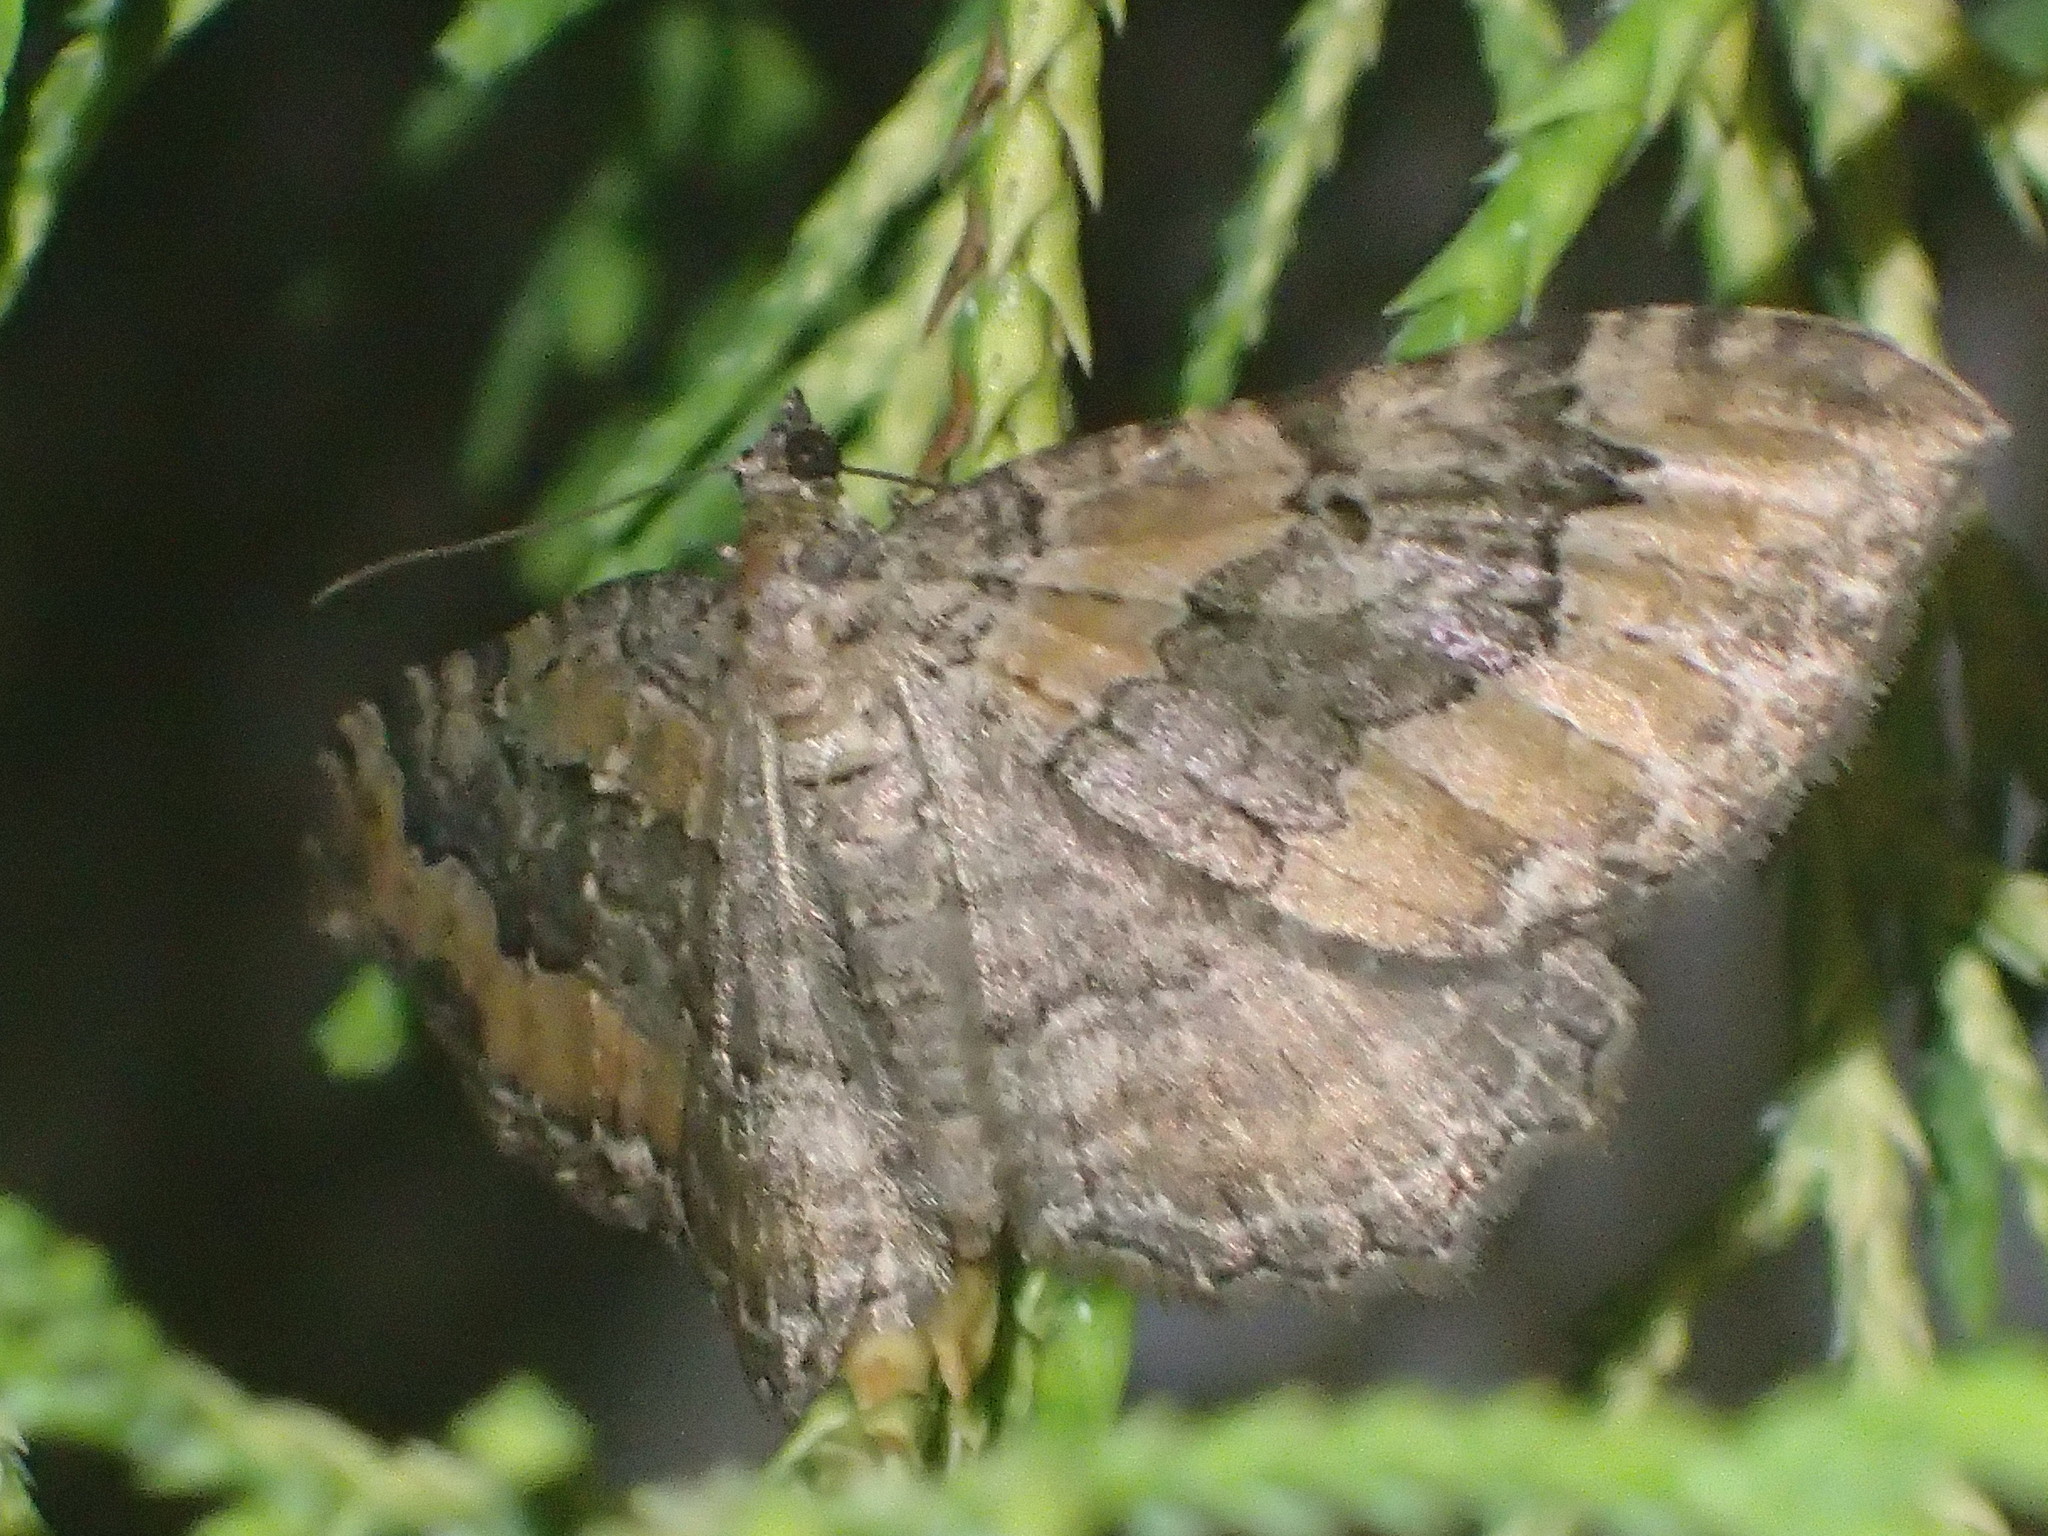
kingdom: Animalia
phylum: Arthropoda
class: Insecta
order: Lepidoptera
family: Geometridae
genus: Rheumaptera
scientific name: Rheumaptera
